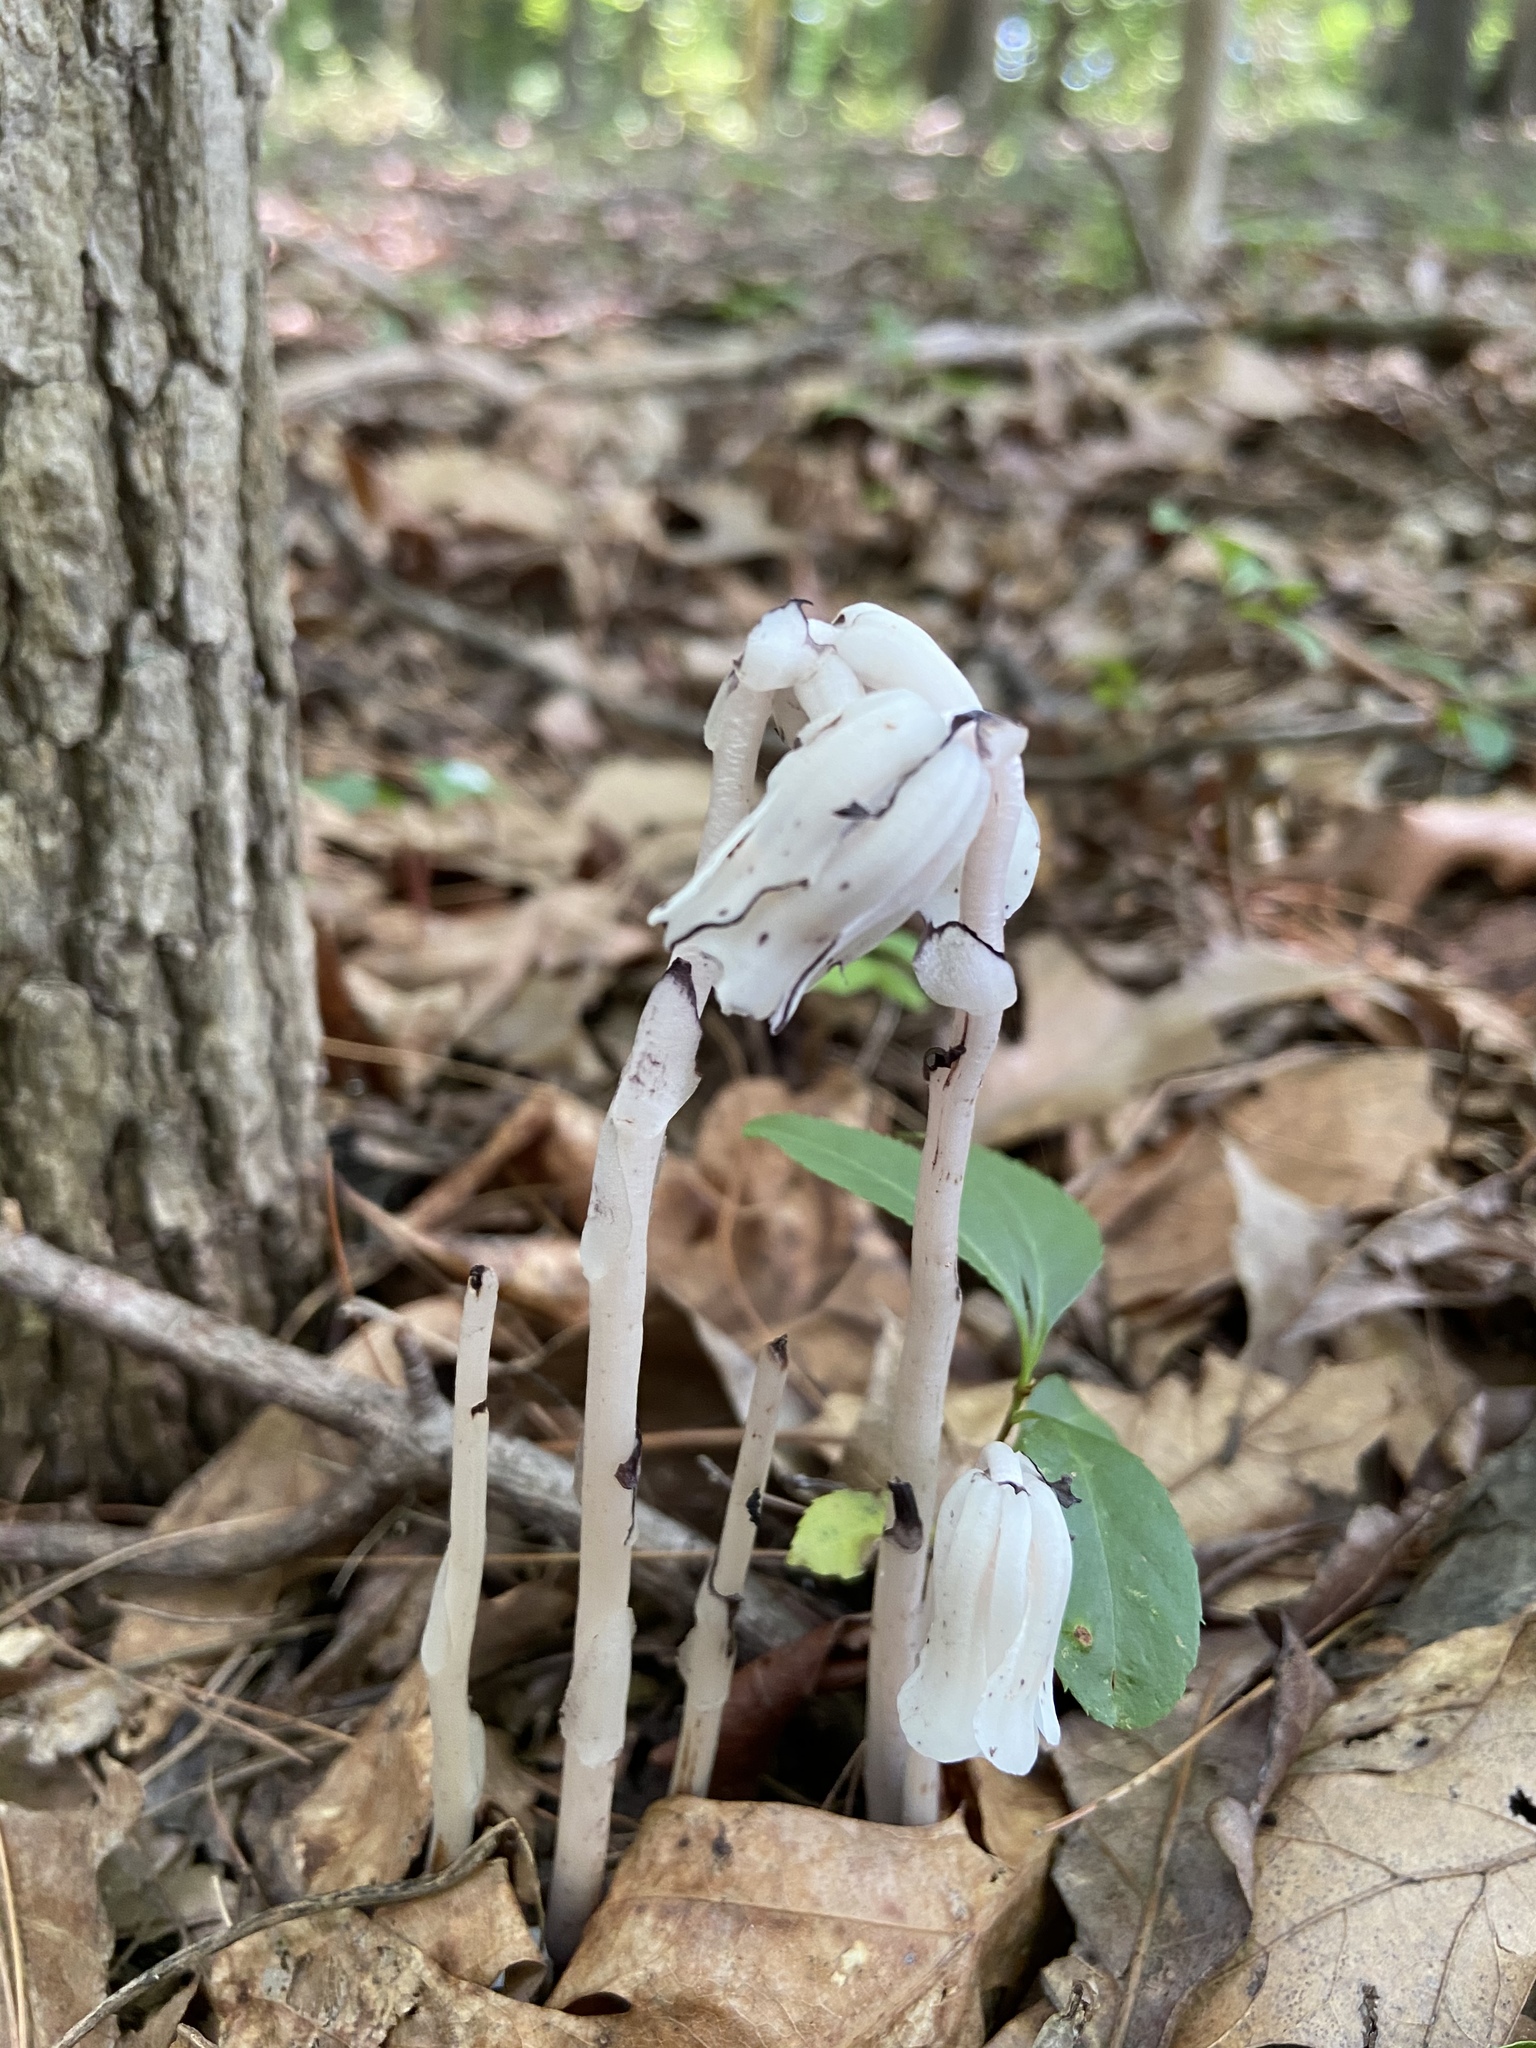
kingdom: Plantae
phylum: Tracheophyta
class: Magnoliopsida
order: Ericales
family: Ericaceae
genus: Monotropa
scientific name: Monotropa uniflora
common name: Convulsion root
